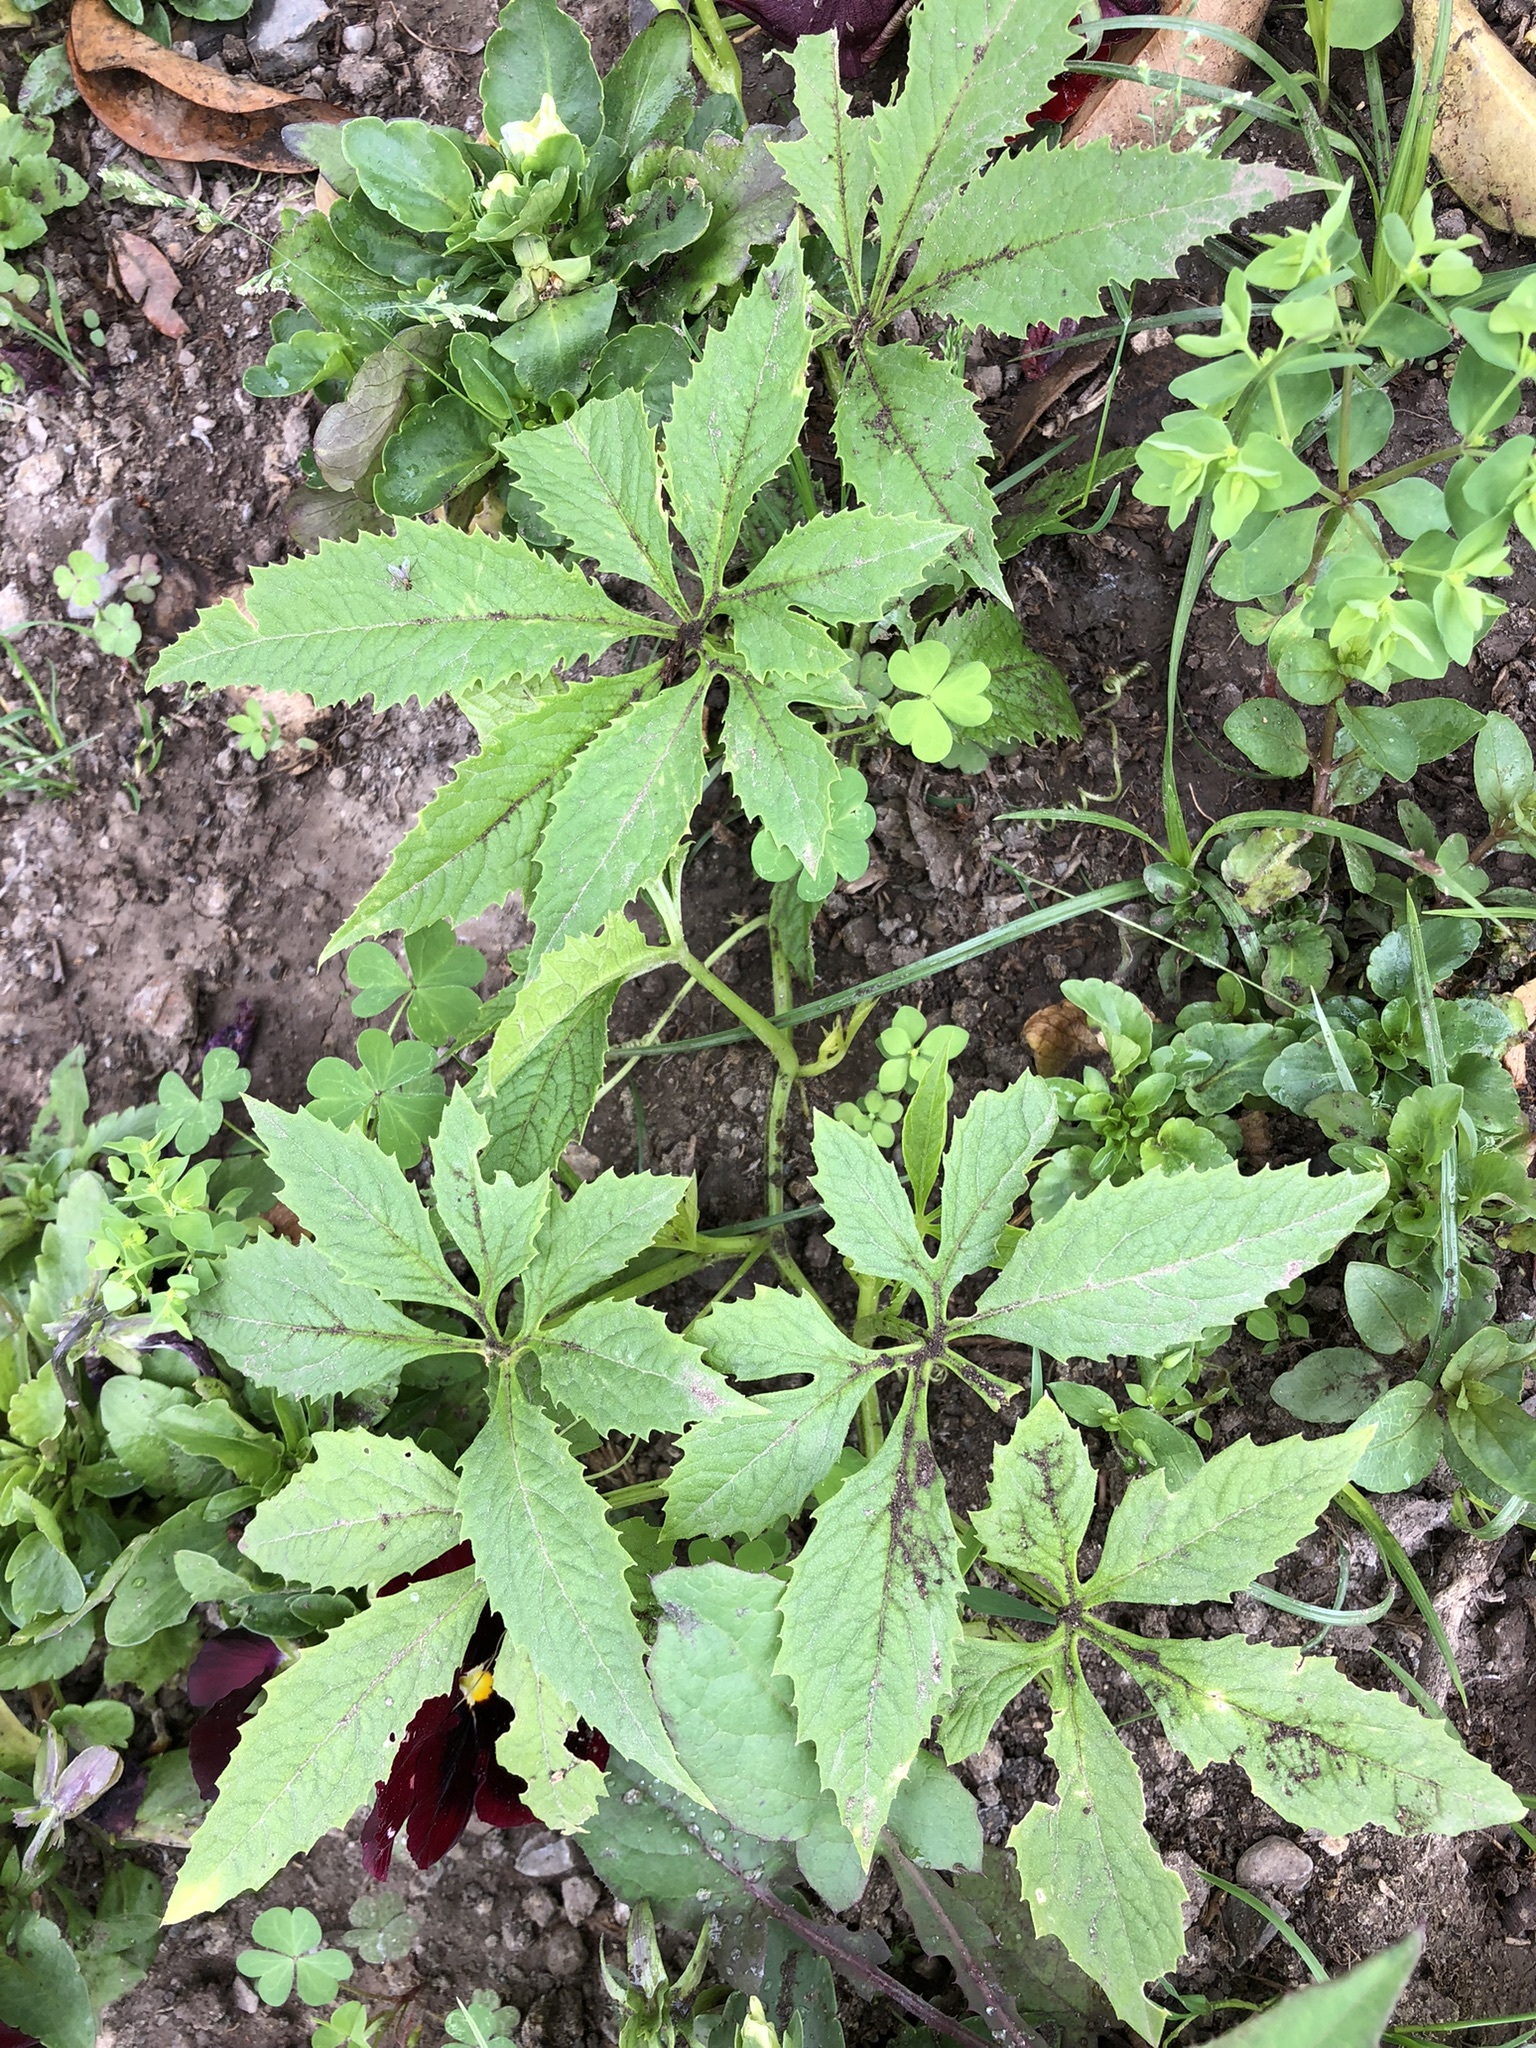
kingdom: Plantae
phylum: Tracheophyta
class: Magnoliopsida
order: Cucurbitales
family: Cucurbitaceae
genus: Cyclanthera
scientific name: Cyclanthera pedata
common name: Slipper goard
